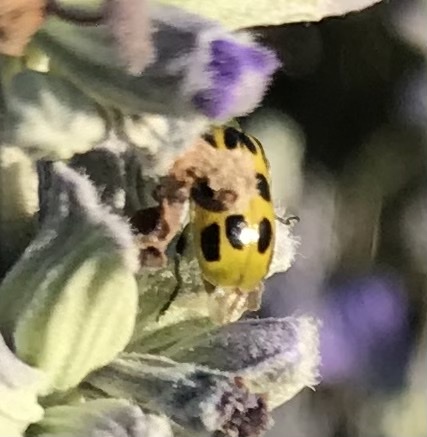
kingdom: Animalia
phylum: Arthropoda
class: Insecta
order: Coleoptera
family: Chrysomelidae
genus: Diabrotica
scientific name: Diabrotica undecimpunctata
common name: Spotted cucumber beetle
